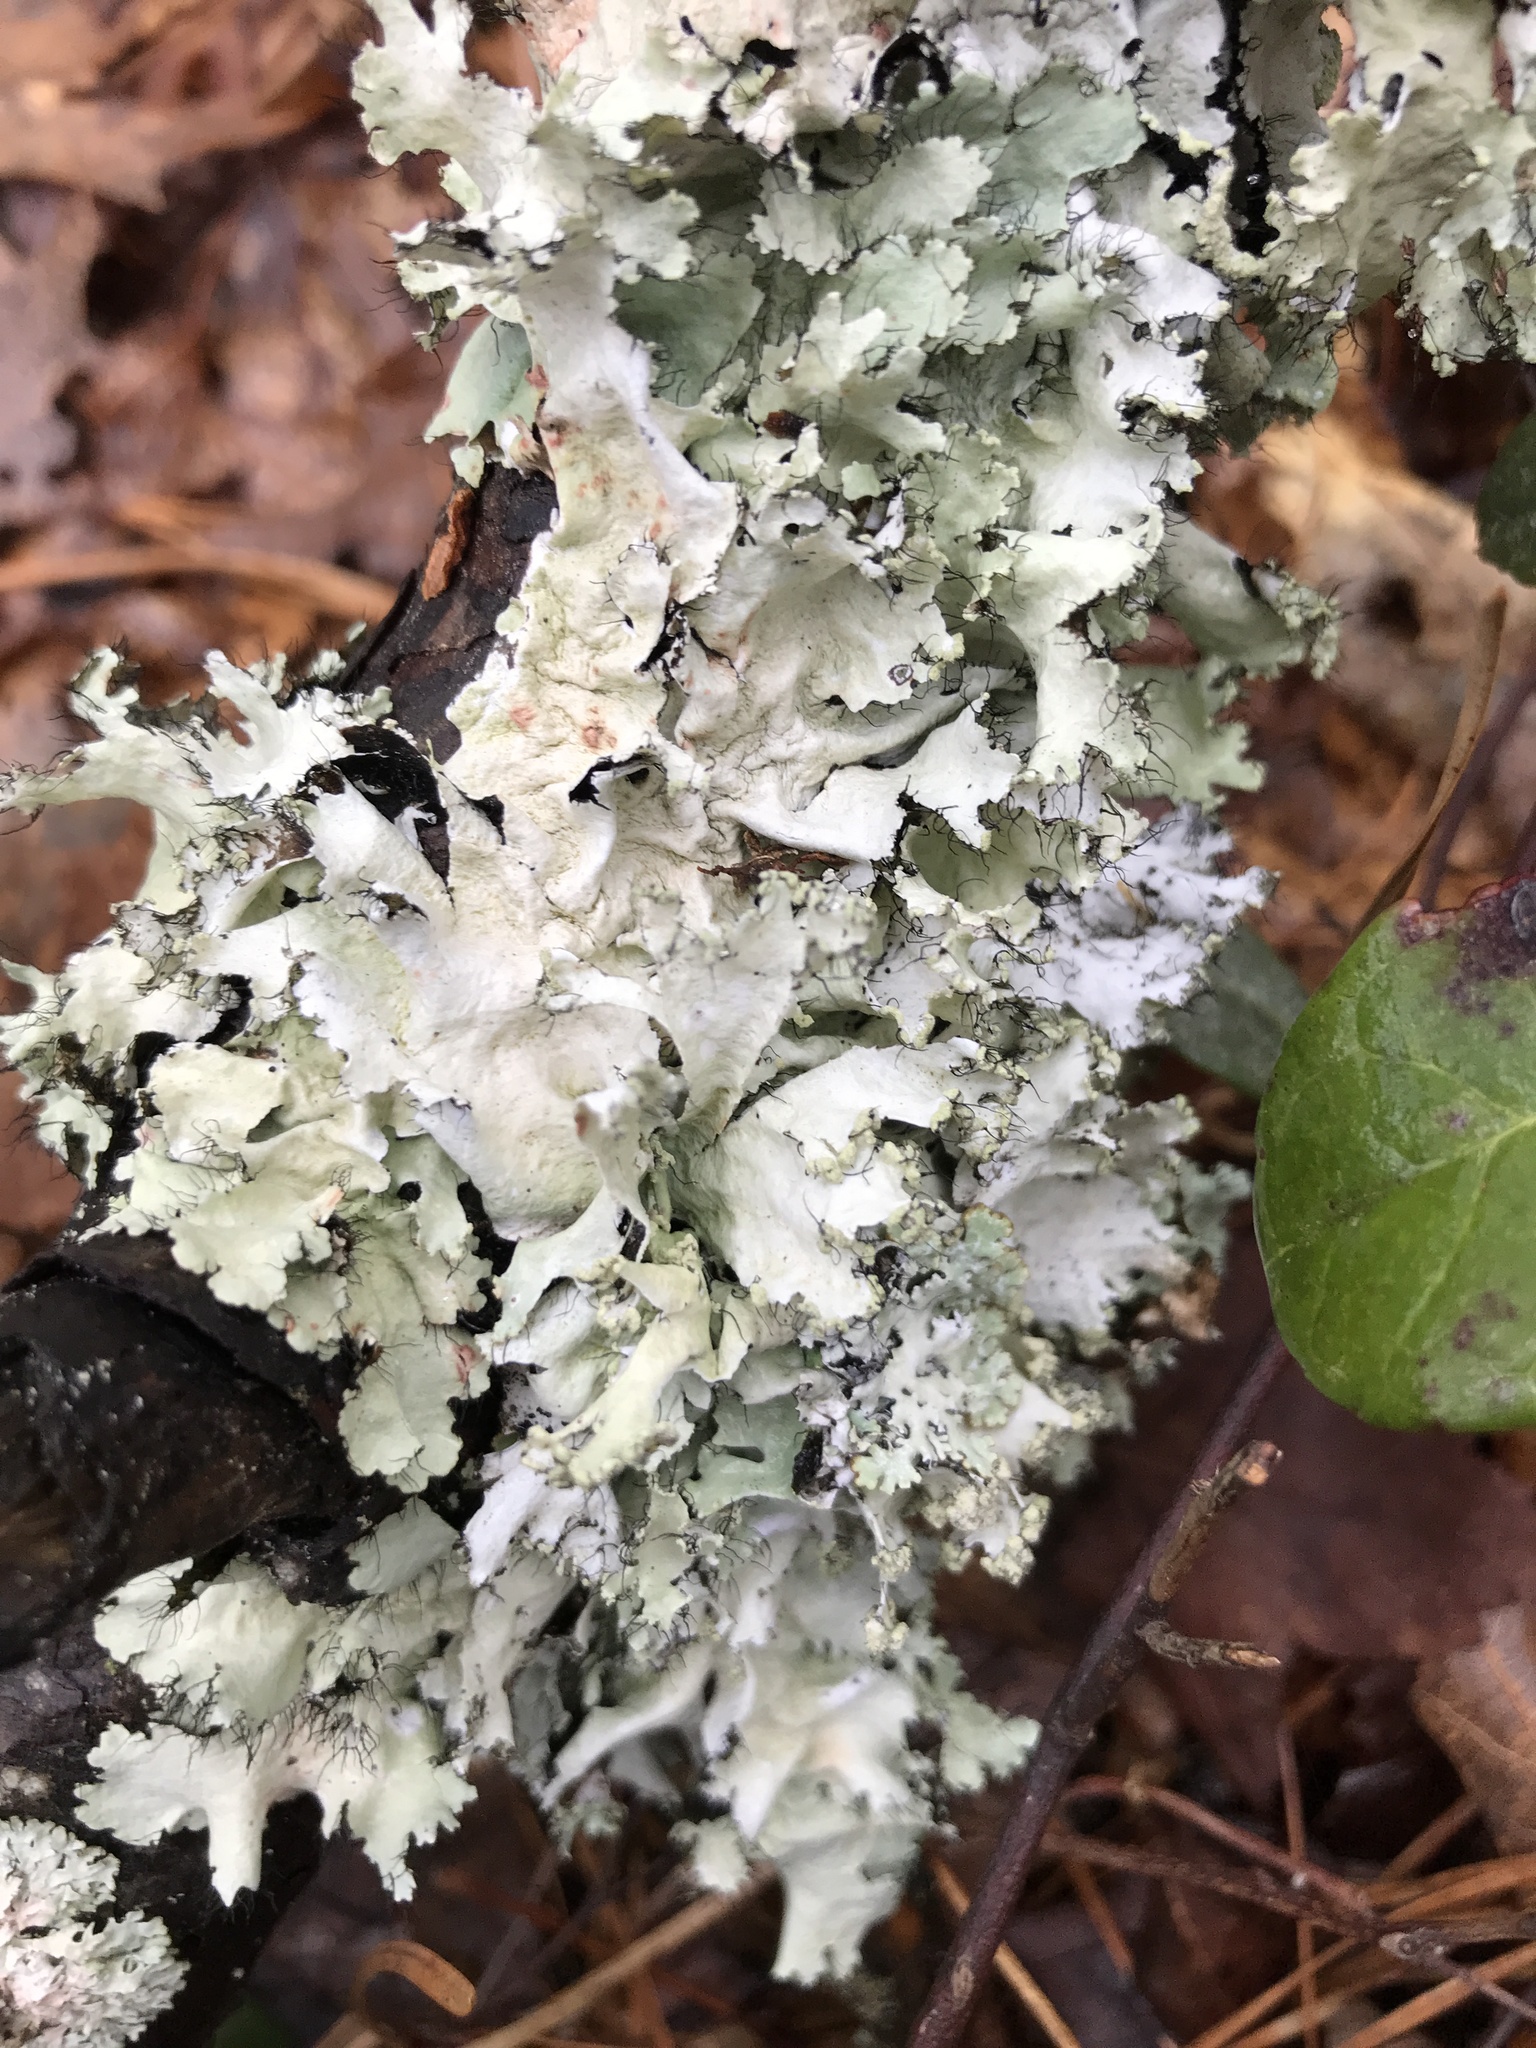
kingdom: Fungi
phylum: Ascomycota
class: Lecanoromycetes
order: Lecanorales
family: Parmeliaceae
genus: Parmotrema
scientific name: Parmotrema hypoleucinum
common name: Lacy powdered-ruffle
